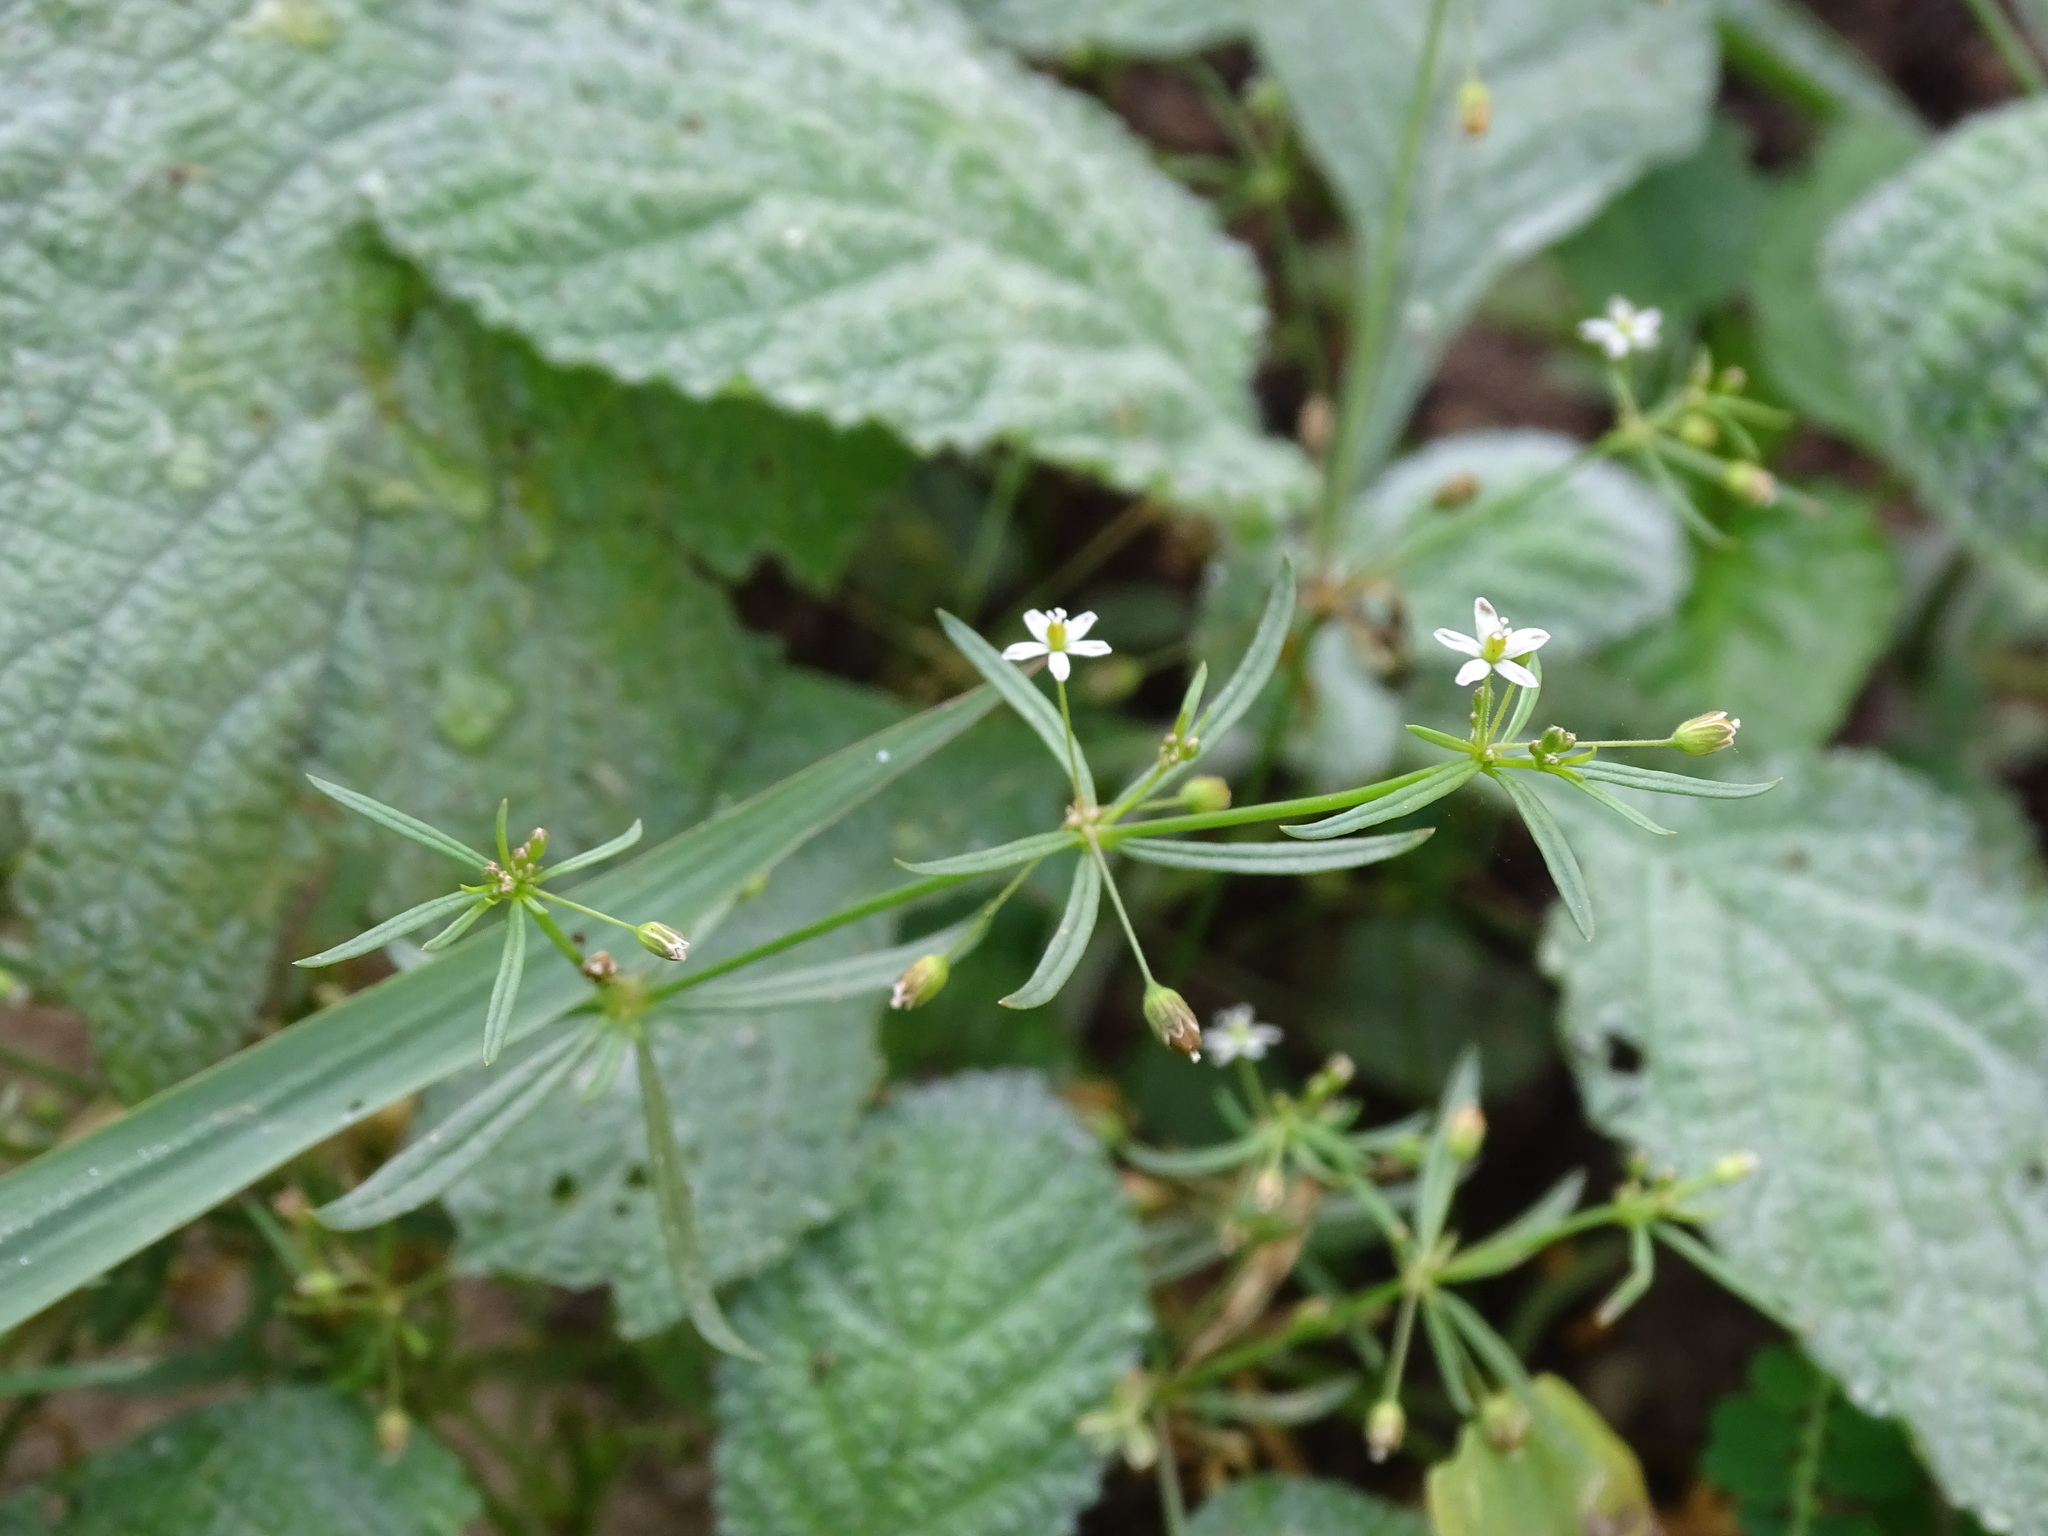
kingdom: Plantae
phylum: Tracheophyta
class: Magnoliopsida
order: Caryophyllales
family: Molluginaceae
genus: Mollugo
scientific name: Mollugo verticillata
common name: Green carpetweed
